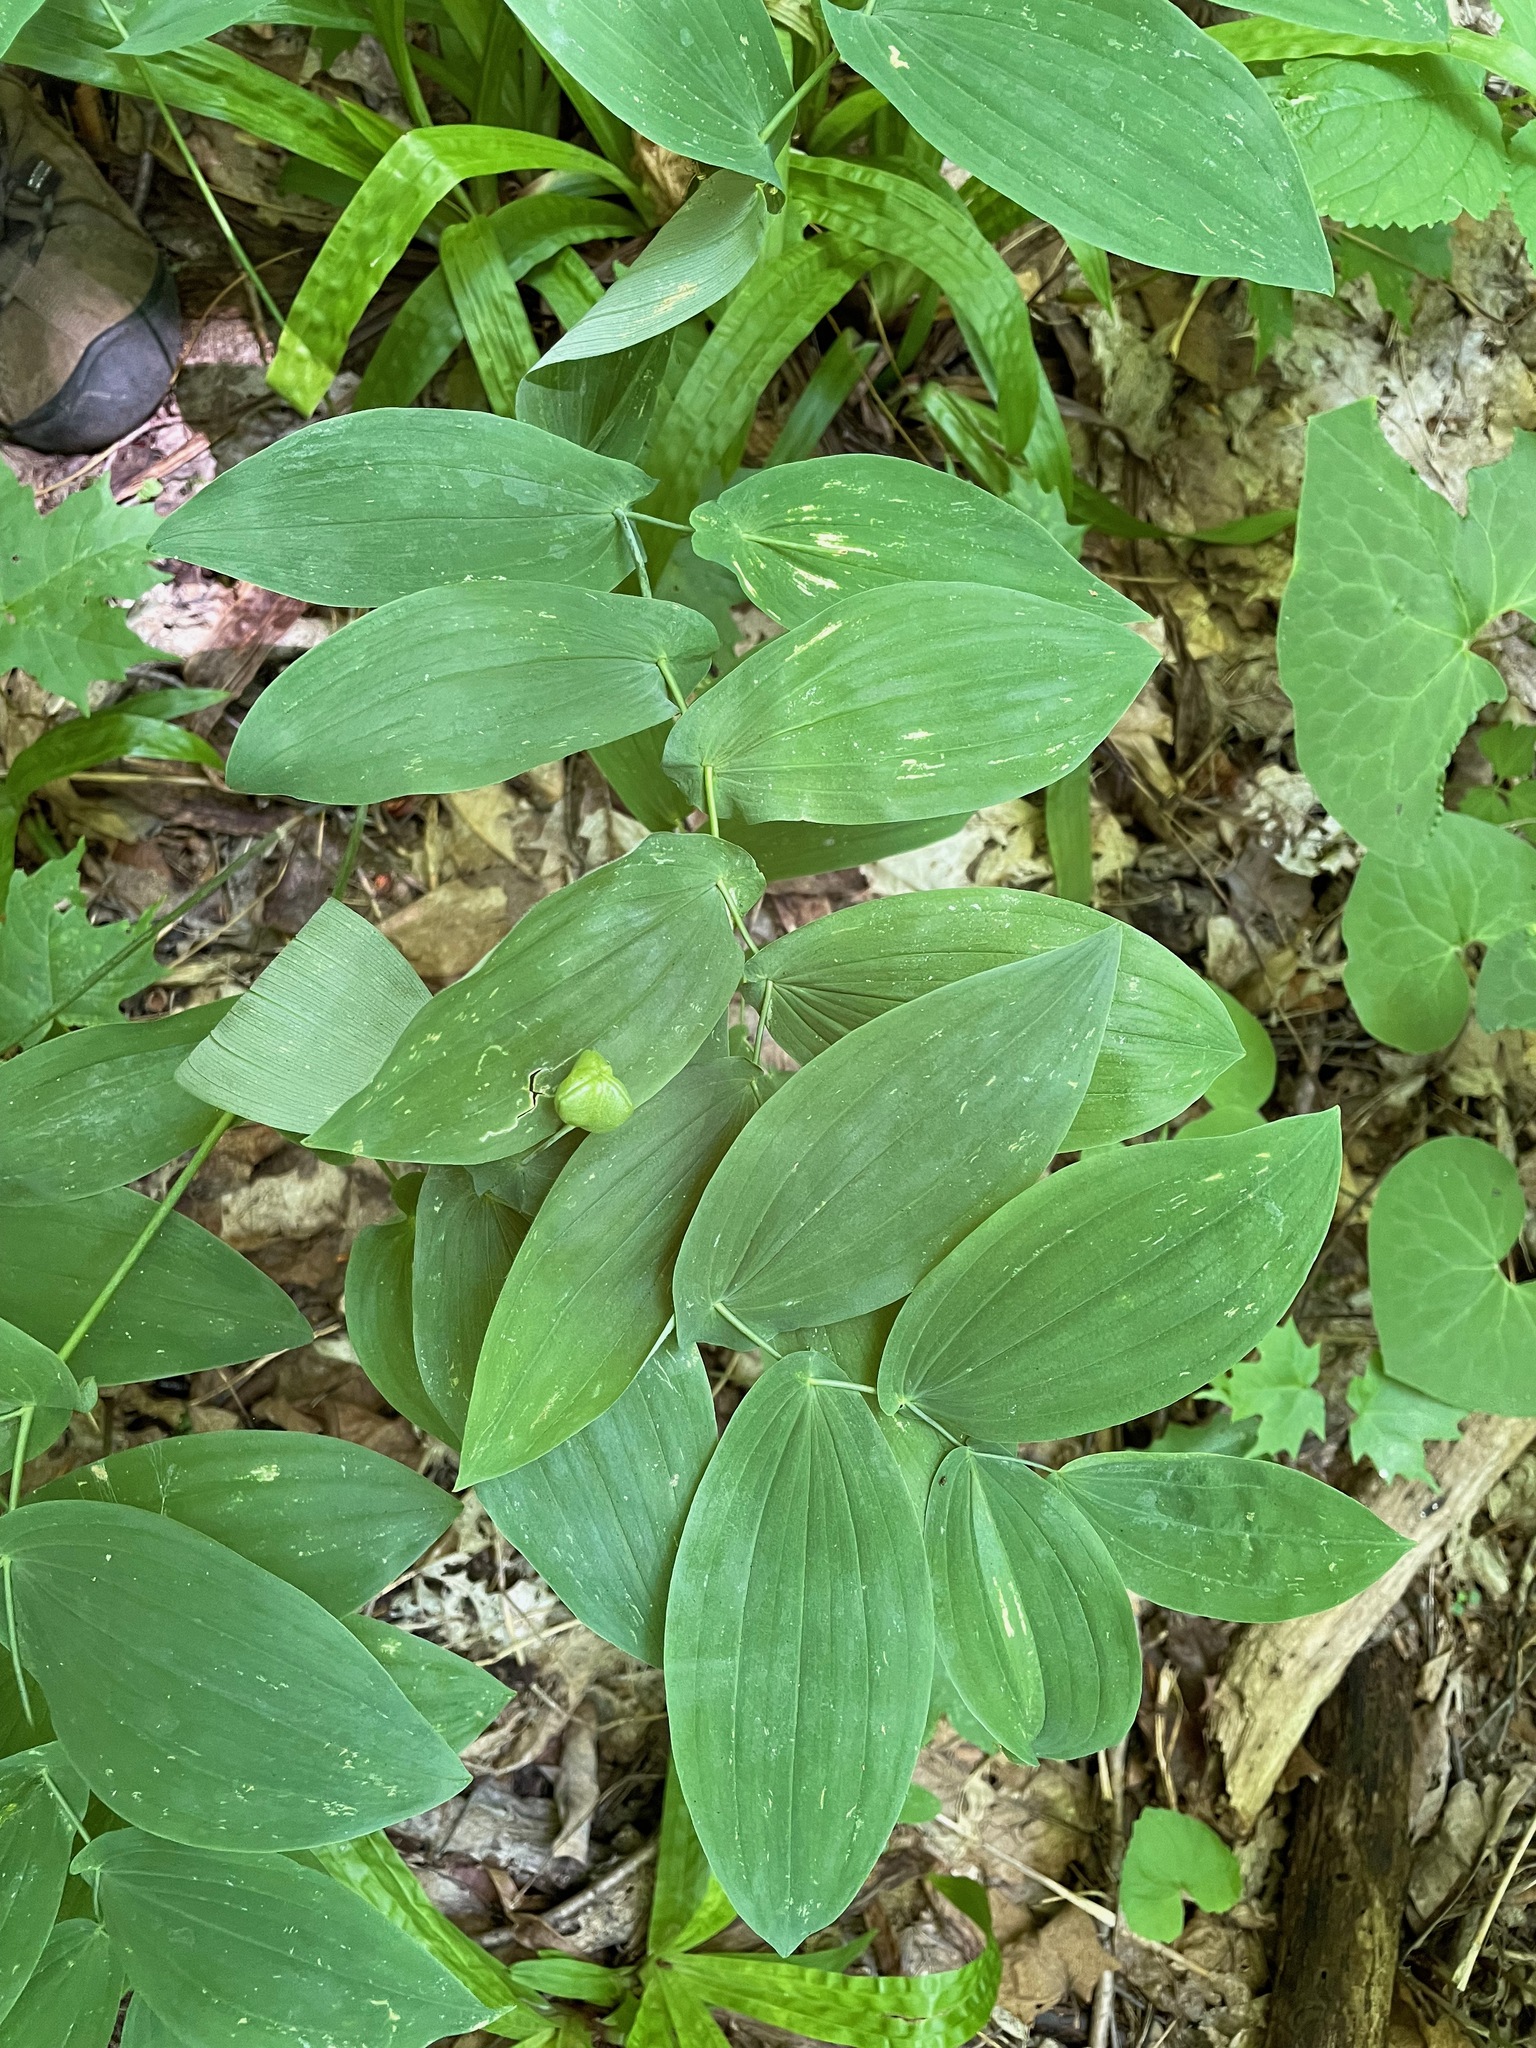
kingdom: Plantae
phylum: Tracheophyta
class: Liliopsida
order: Liliales
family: Colchicaceae
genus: Uvularia
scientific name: Uvularia grandiflora
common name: Bellwort
